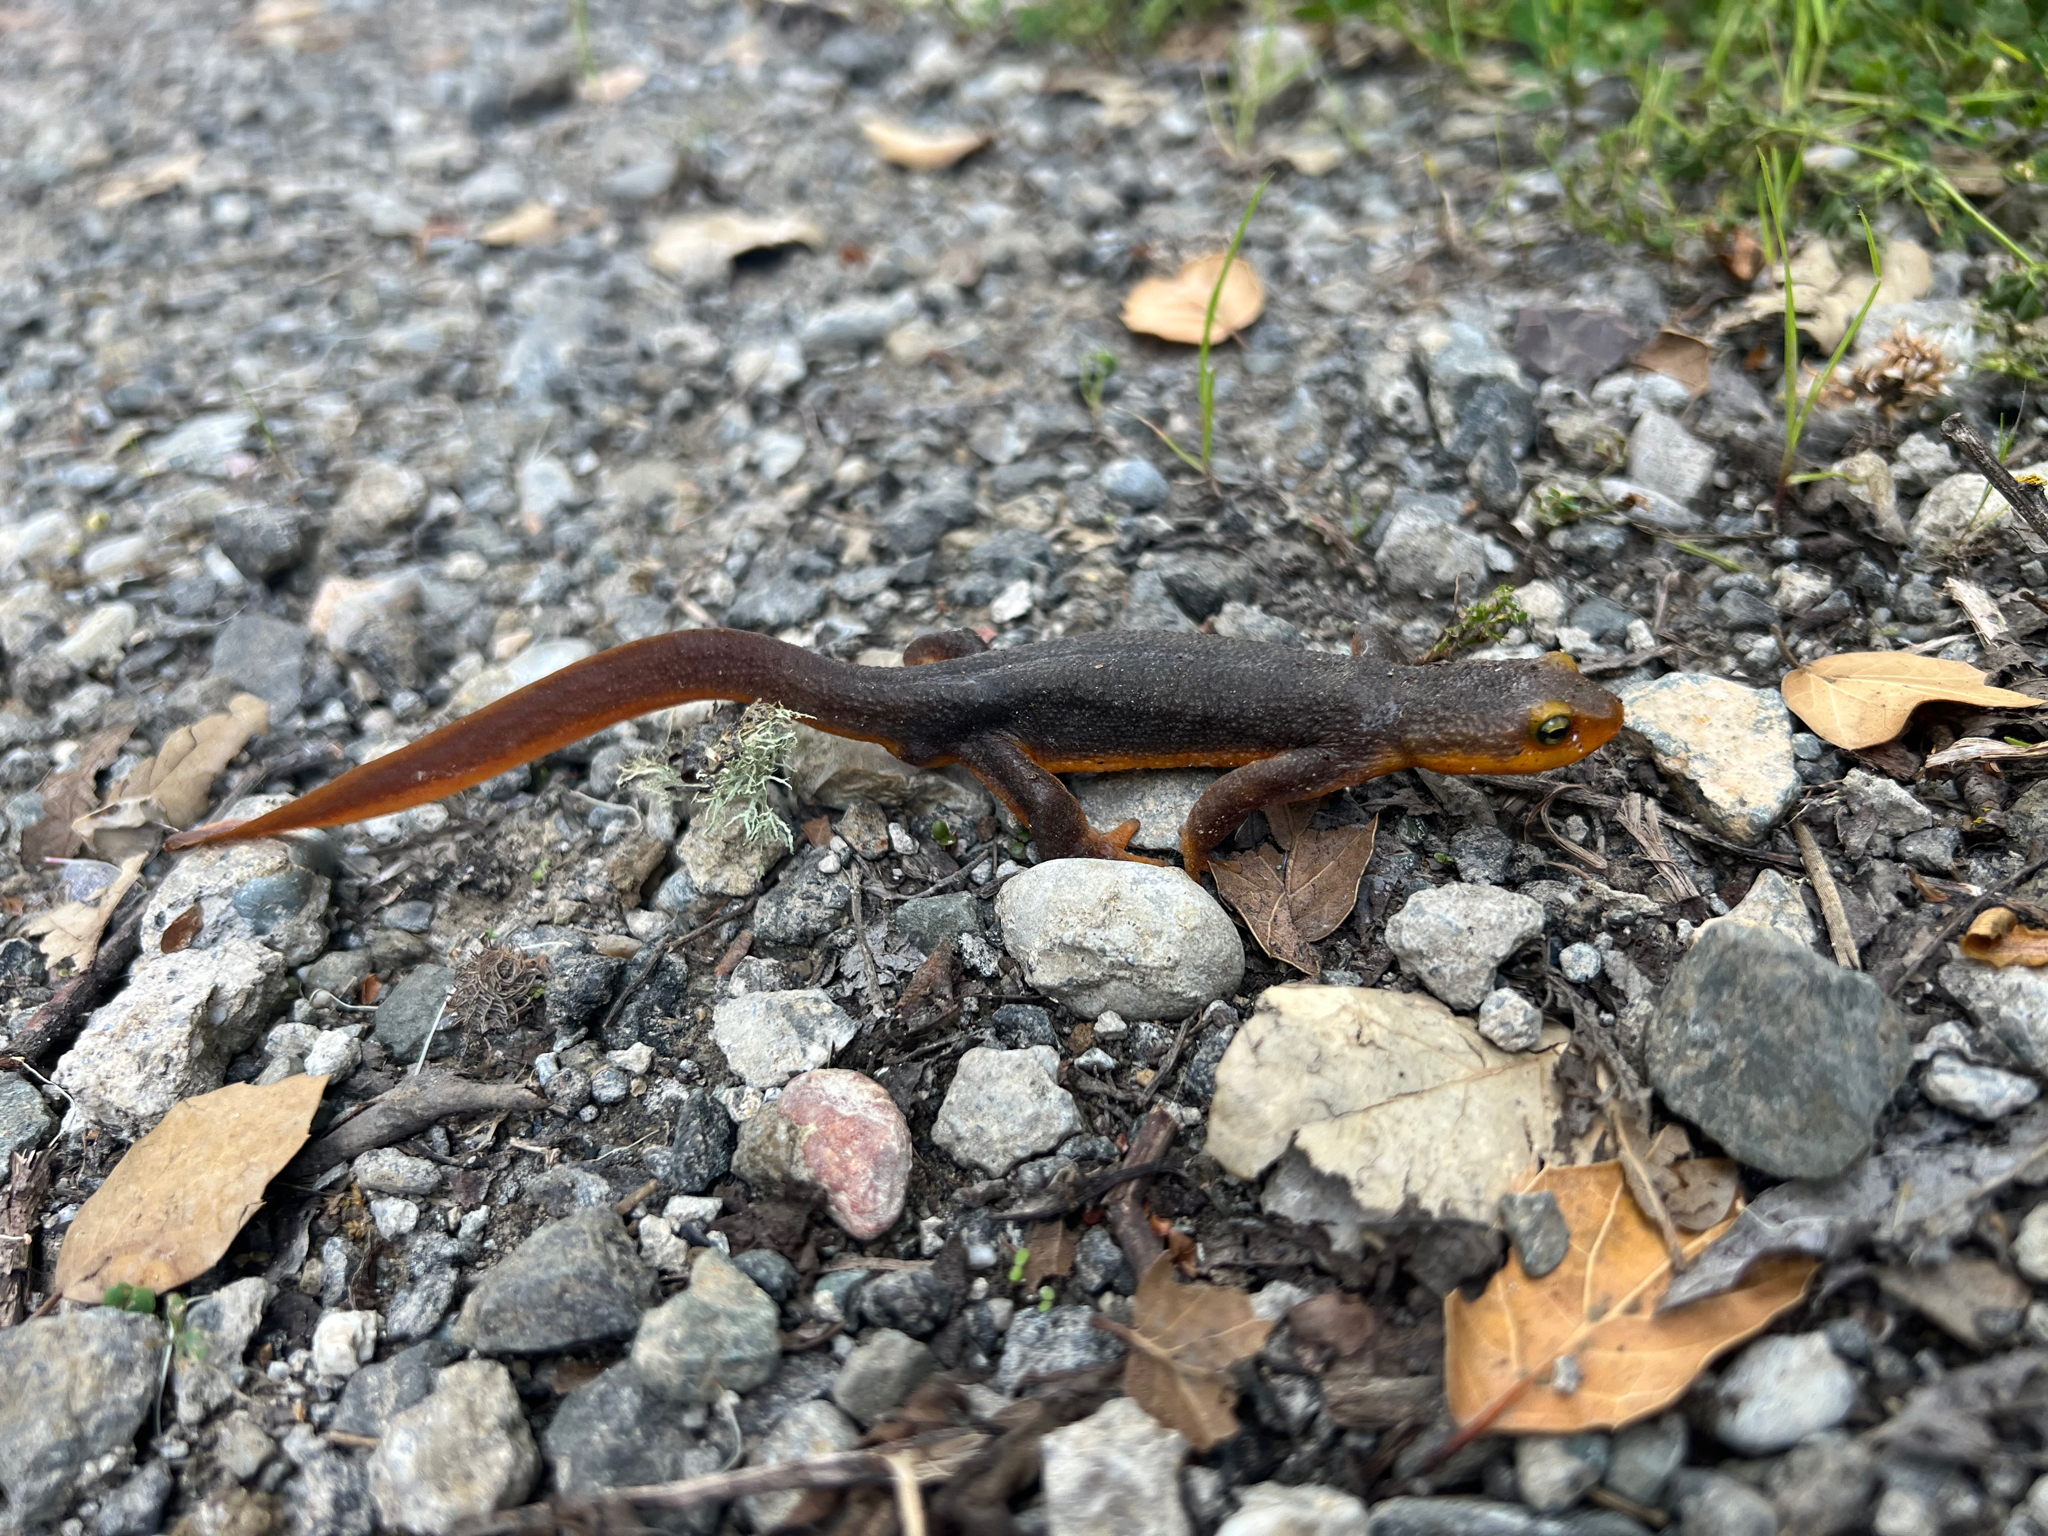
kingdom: Animalia
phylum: Chordata
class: Amphibia
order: Caudata
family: Salamandridae
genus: Taricha
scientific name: Taricha torosa
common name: California newt
